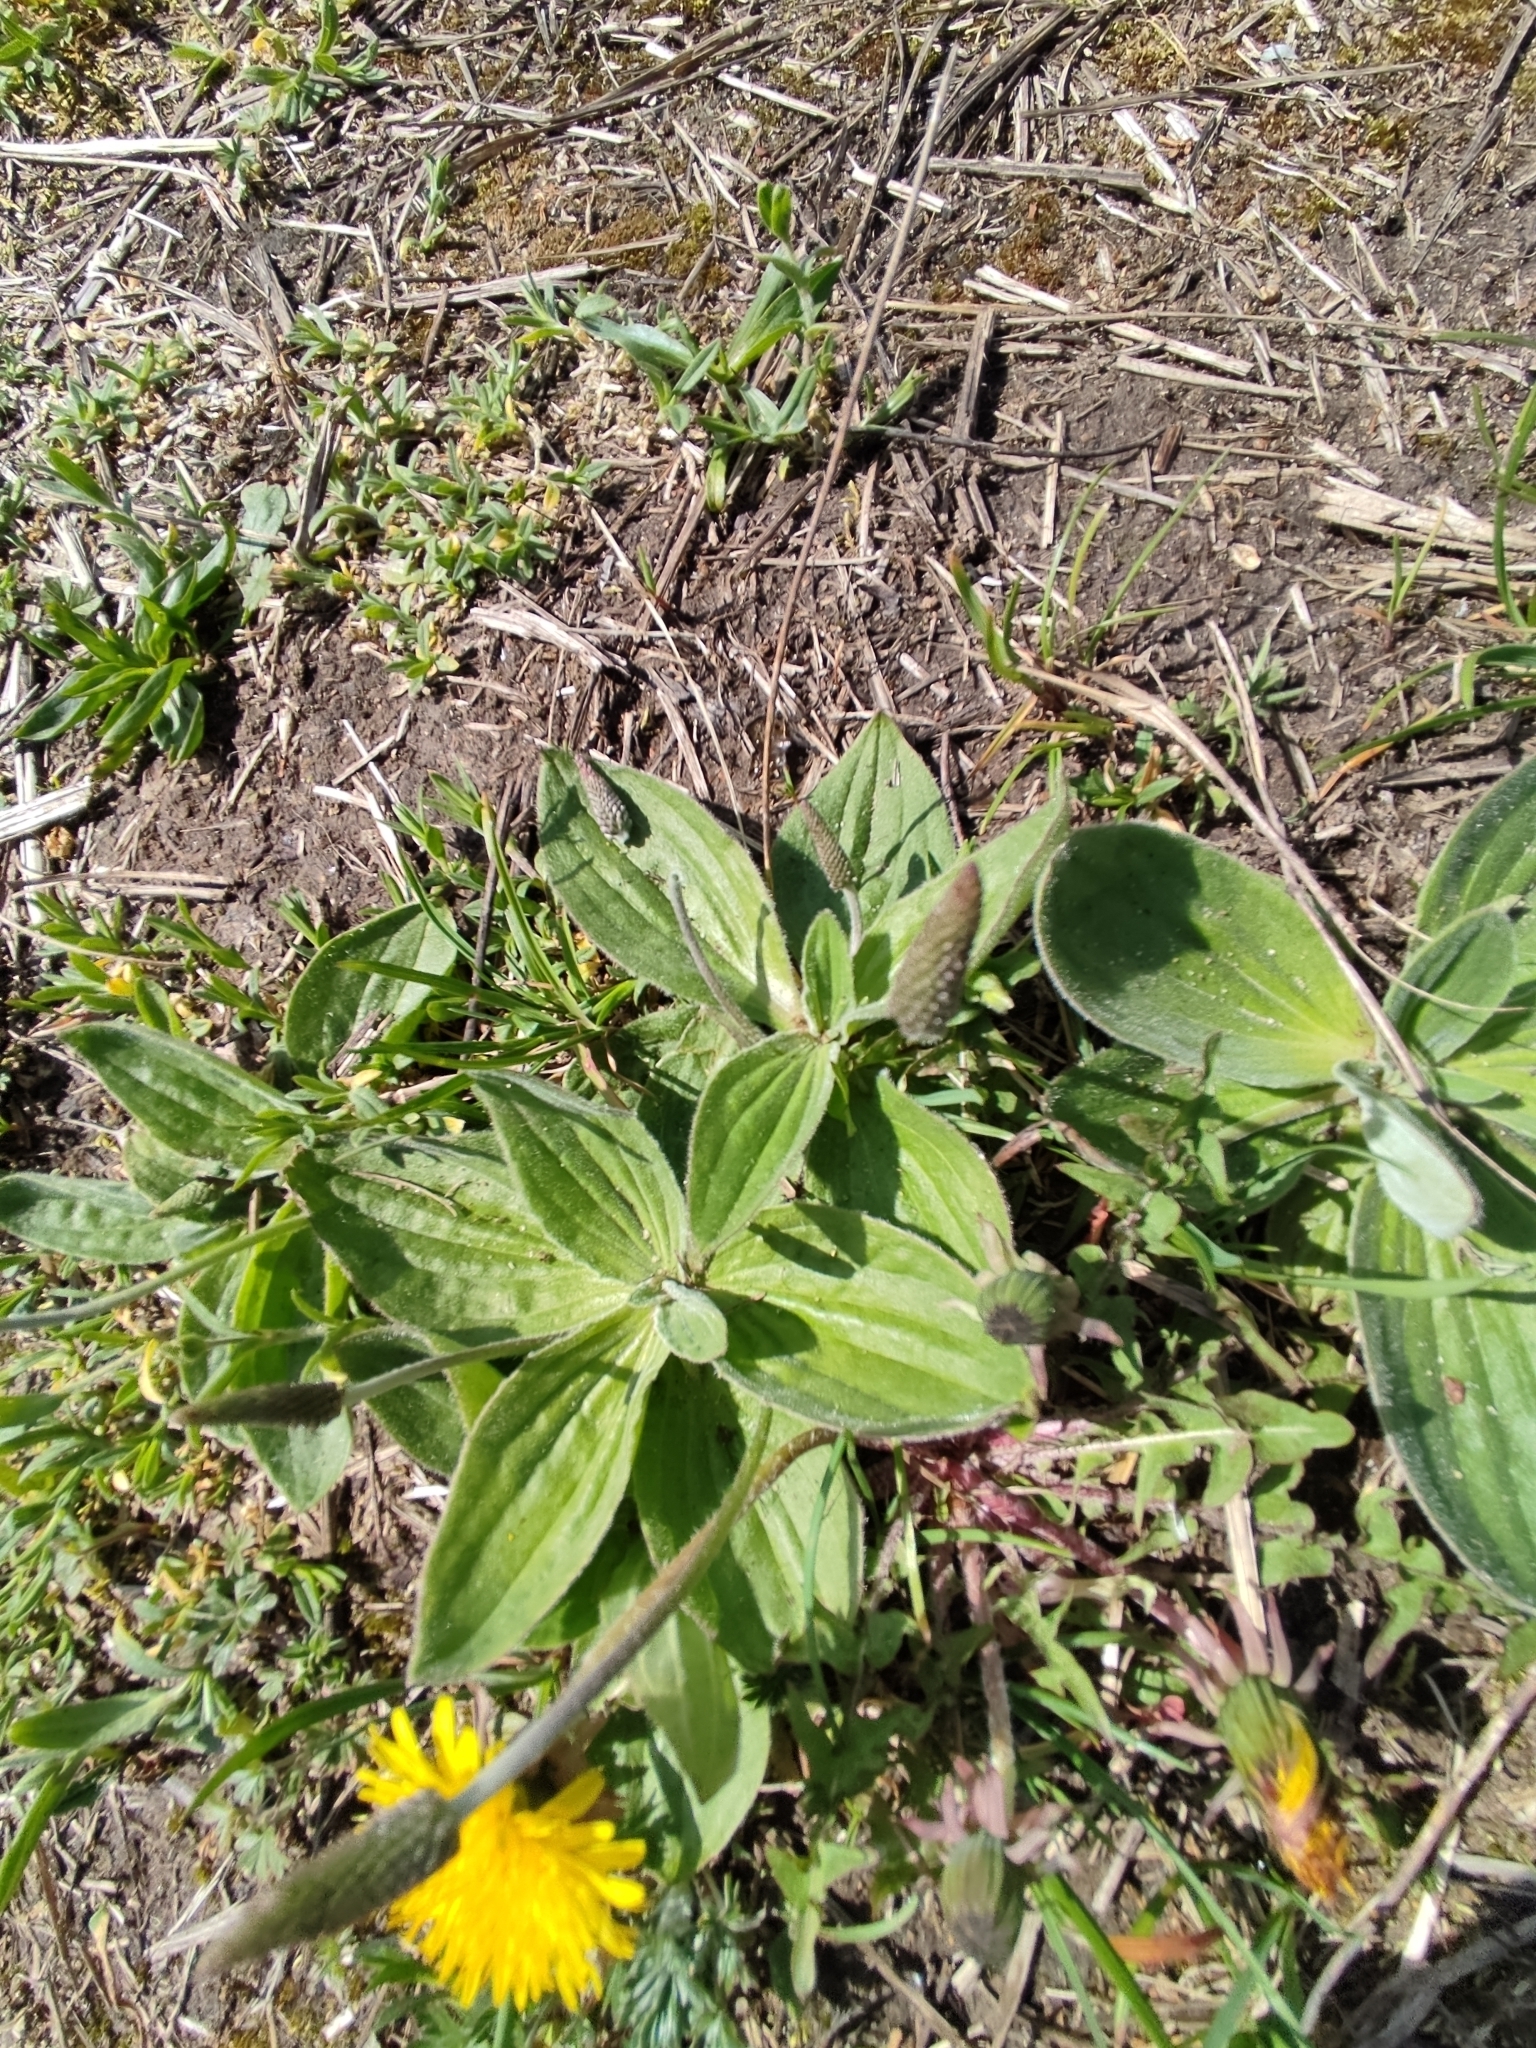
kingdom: Plantae
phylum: Tracheophyta
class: Magnoliopsida
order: Lamiales
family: Plantaginaceae
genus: Plantago
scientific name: Plantago media
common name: Hoary plantain
